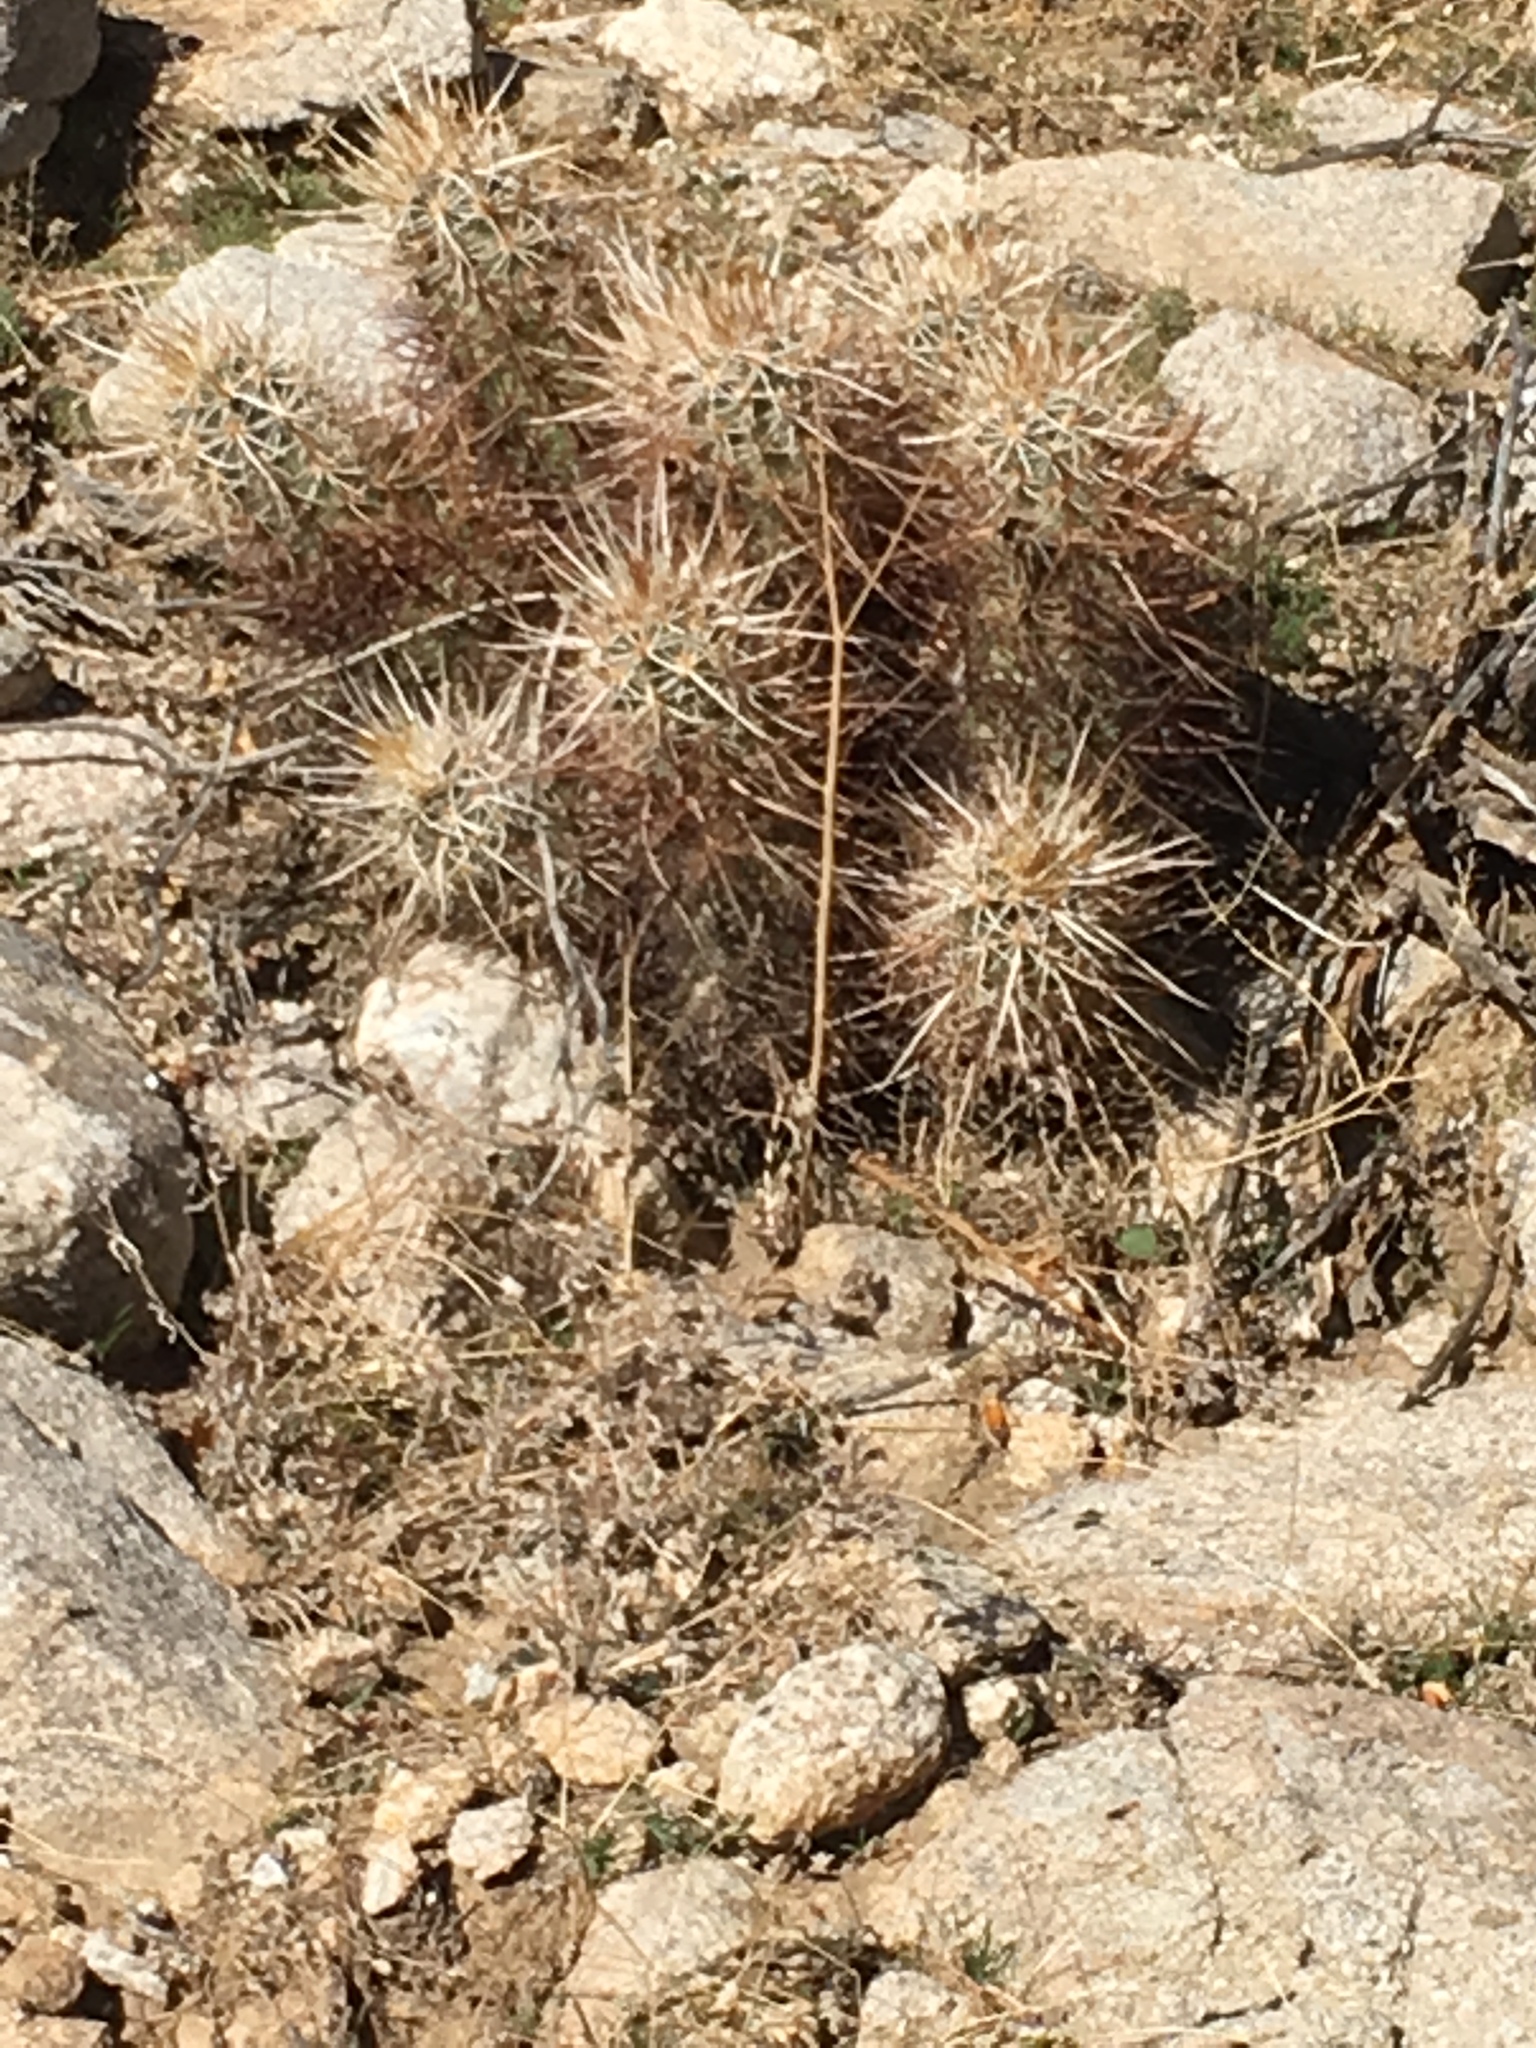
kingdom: Plantae
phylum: Tracheophyta
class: Magnoliopsida
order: Caryophyllales
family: Cactaceae
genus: Echinocereus
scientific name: Echinocereus engelmannii
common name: Engelmann's hedgehog cactus
